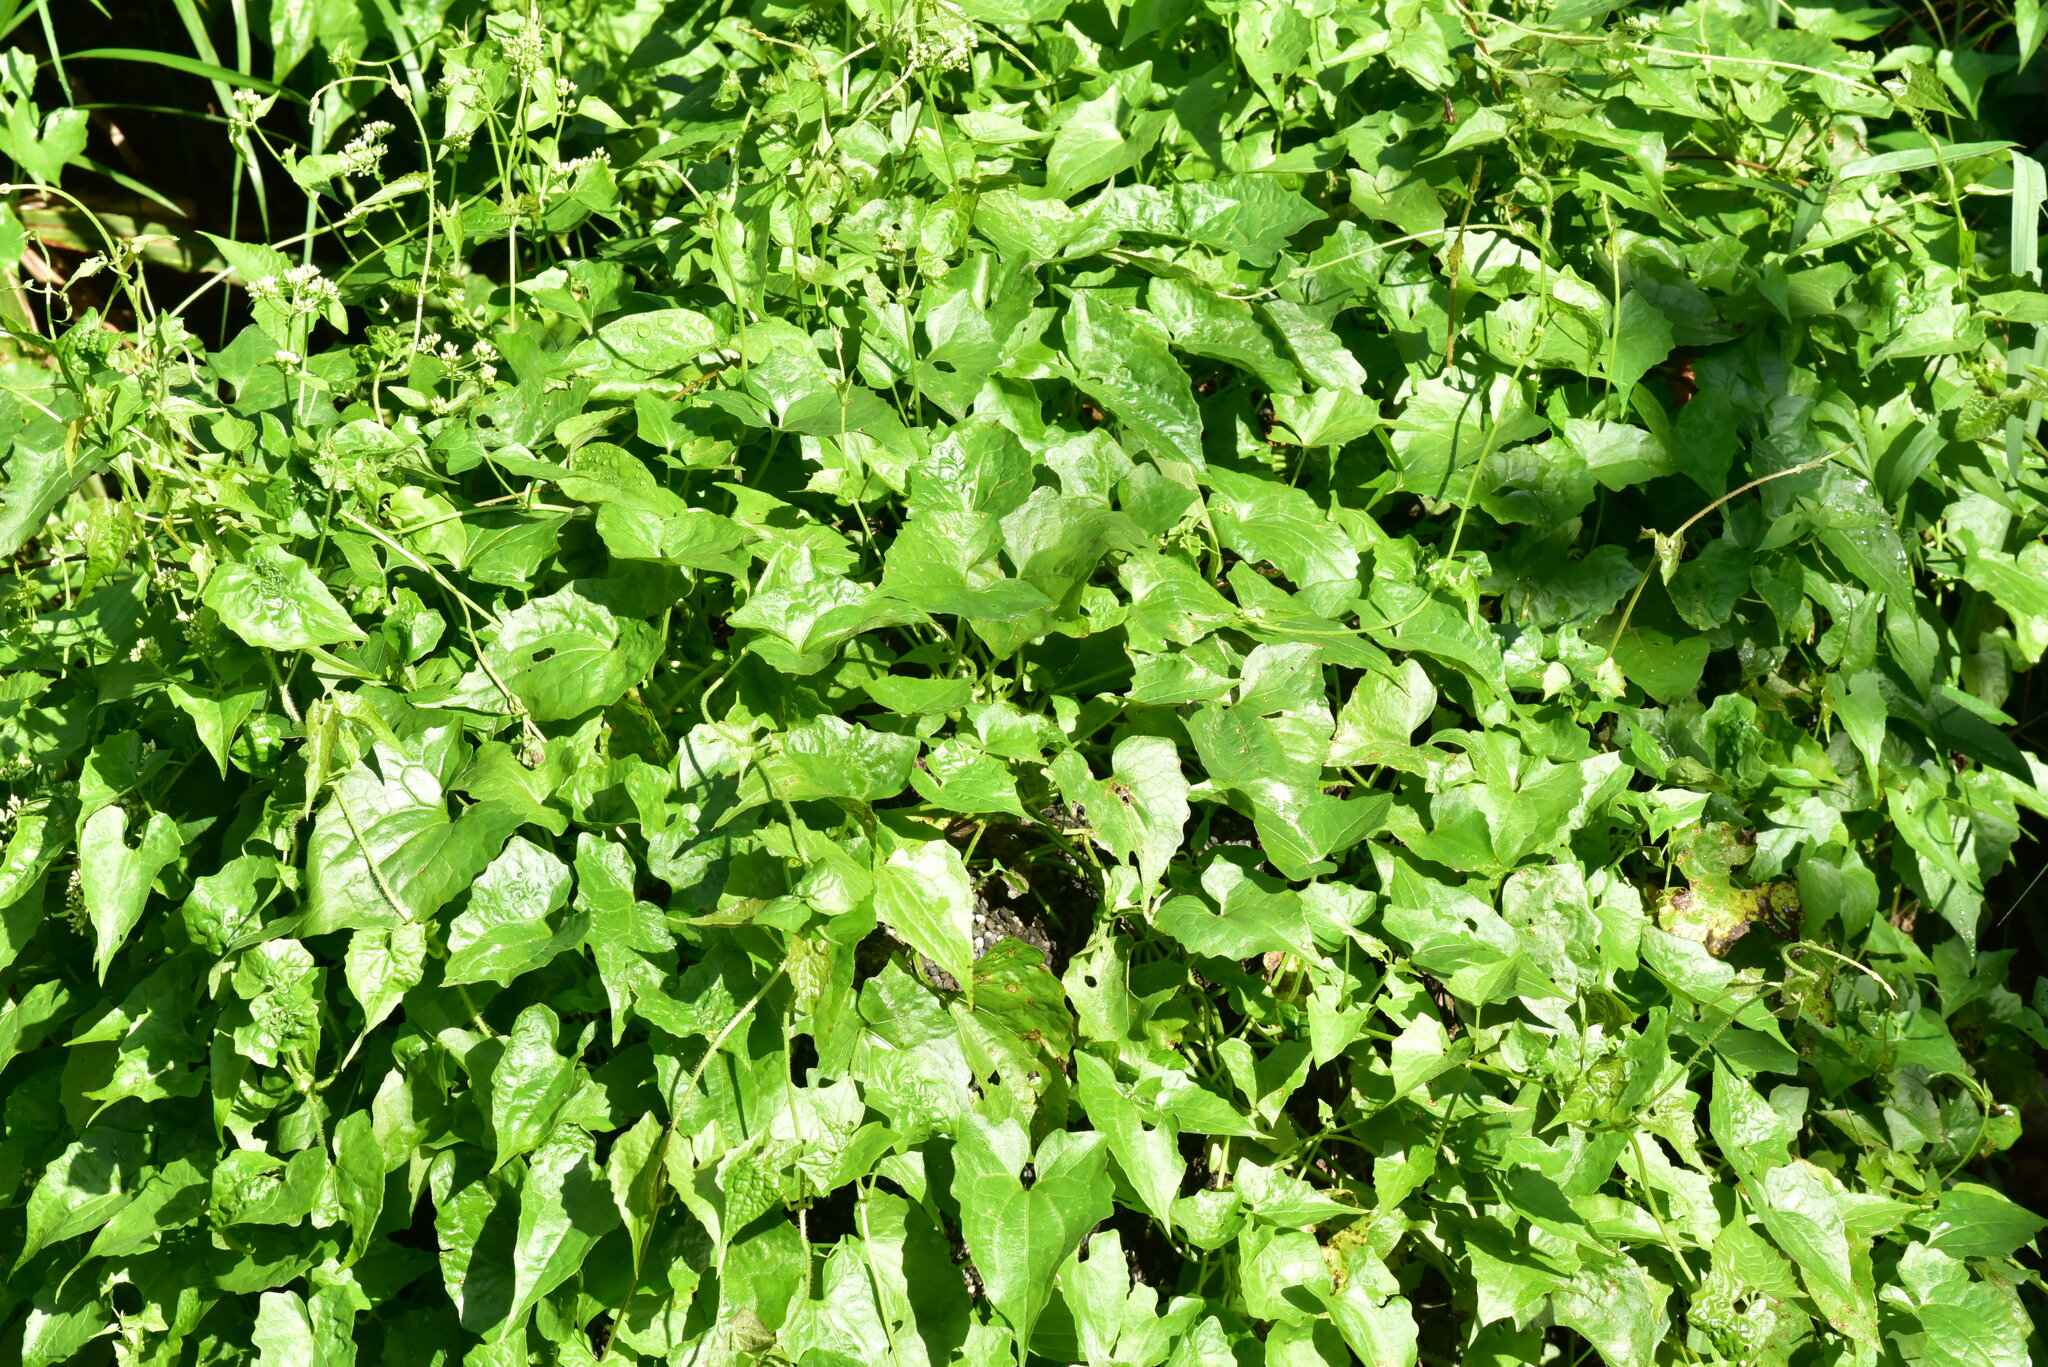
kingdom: Plantae
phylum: Tracheophyta
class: Magnoliopsida
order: Asterales
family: Asteraceae
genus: Mikania
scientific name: Mikania micrantha
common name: Mile-a-minute
